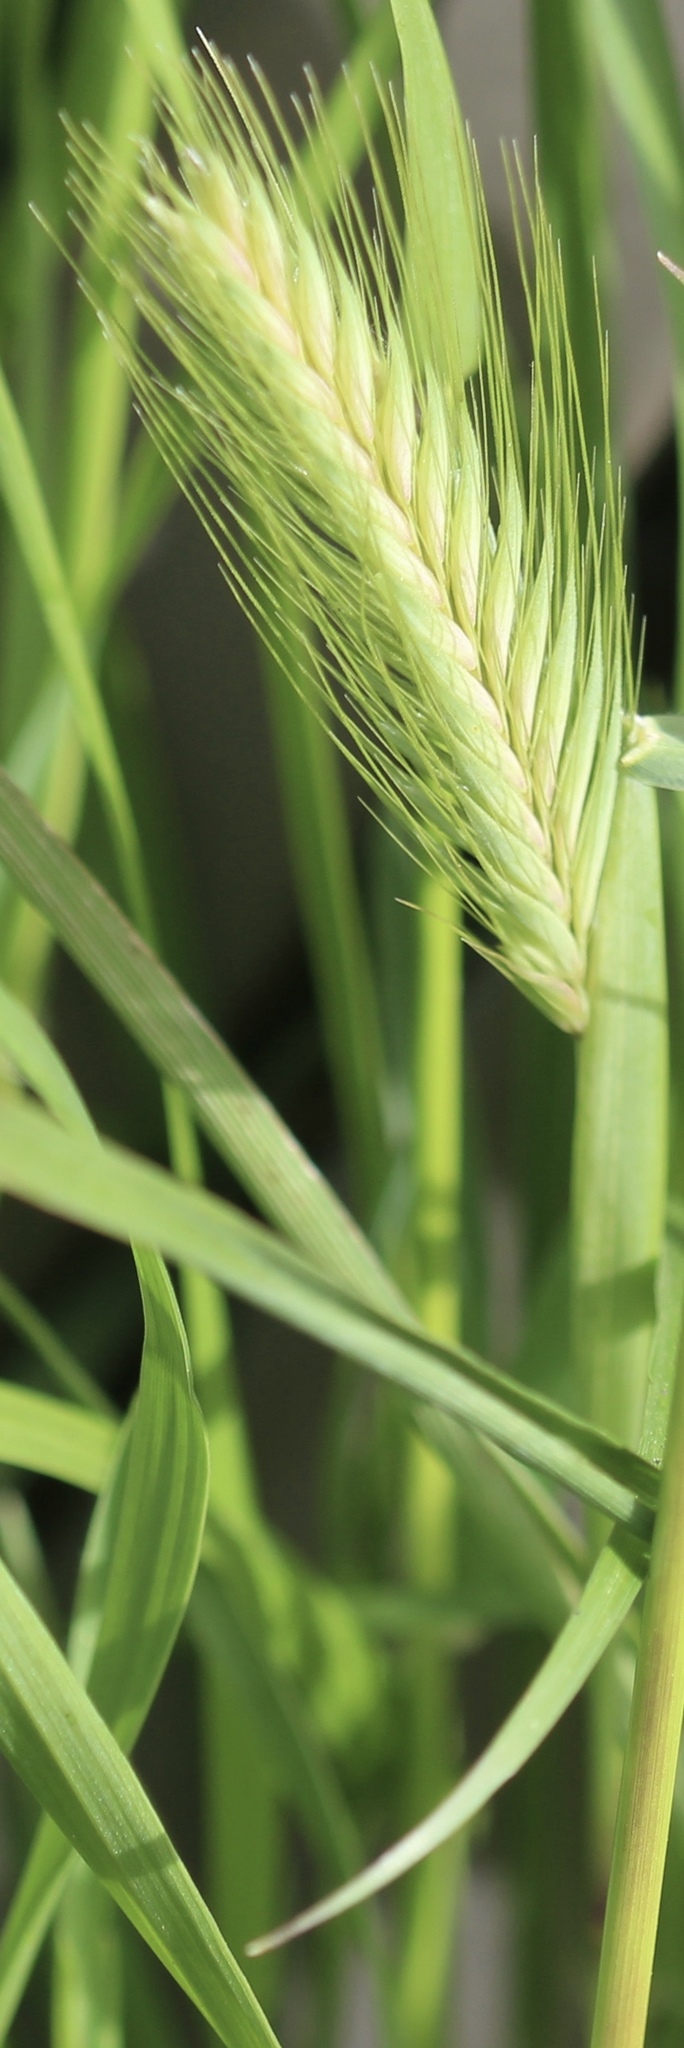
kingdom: Plantae
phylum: Tracheophyta
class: Liliopsida
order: Poales
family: Poaceae
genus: Hordeum
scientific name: Hordeum murinum
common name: Wall barley
